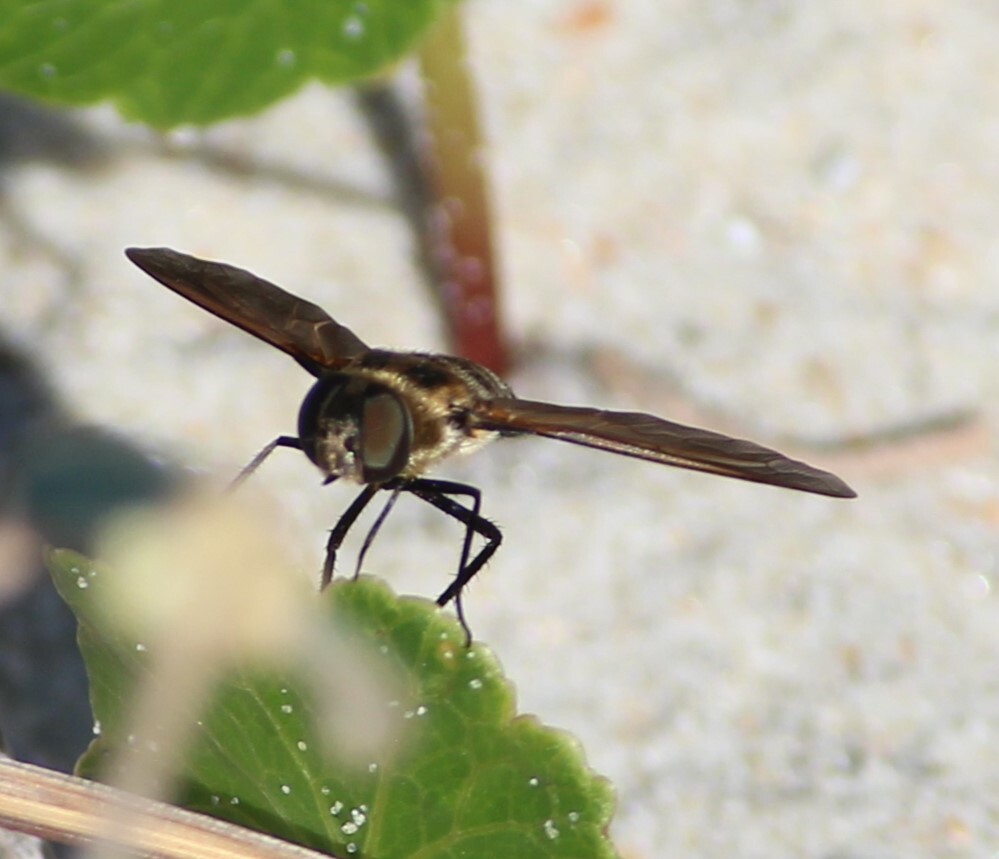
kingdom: Animalia
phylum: Arthropoda
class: Insecta
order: Diptera
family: Bombyliidae
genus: Exoprosopa
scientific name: Exoprosopa fascipennis
